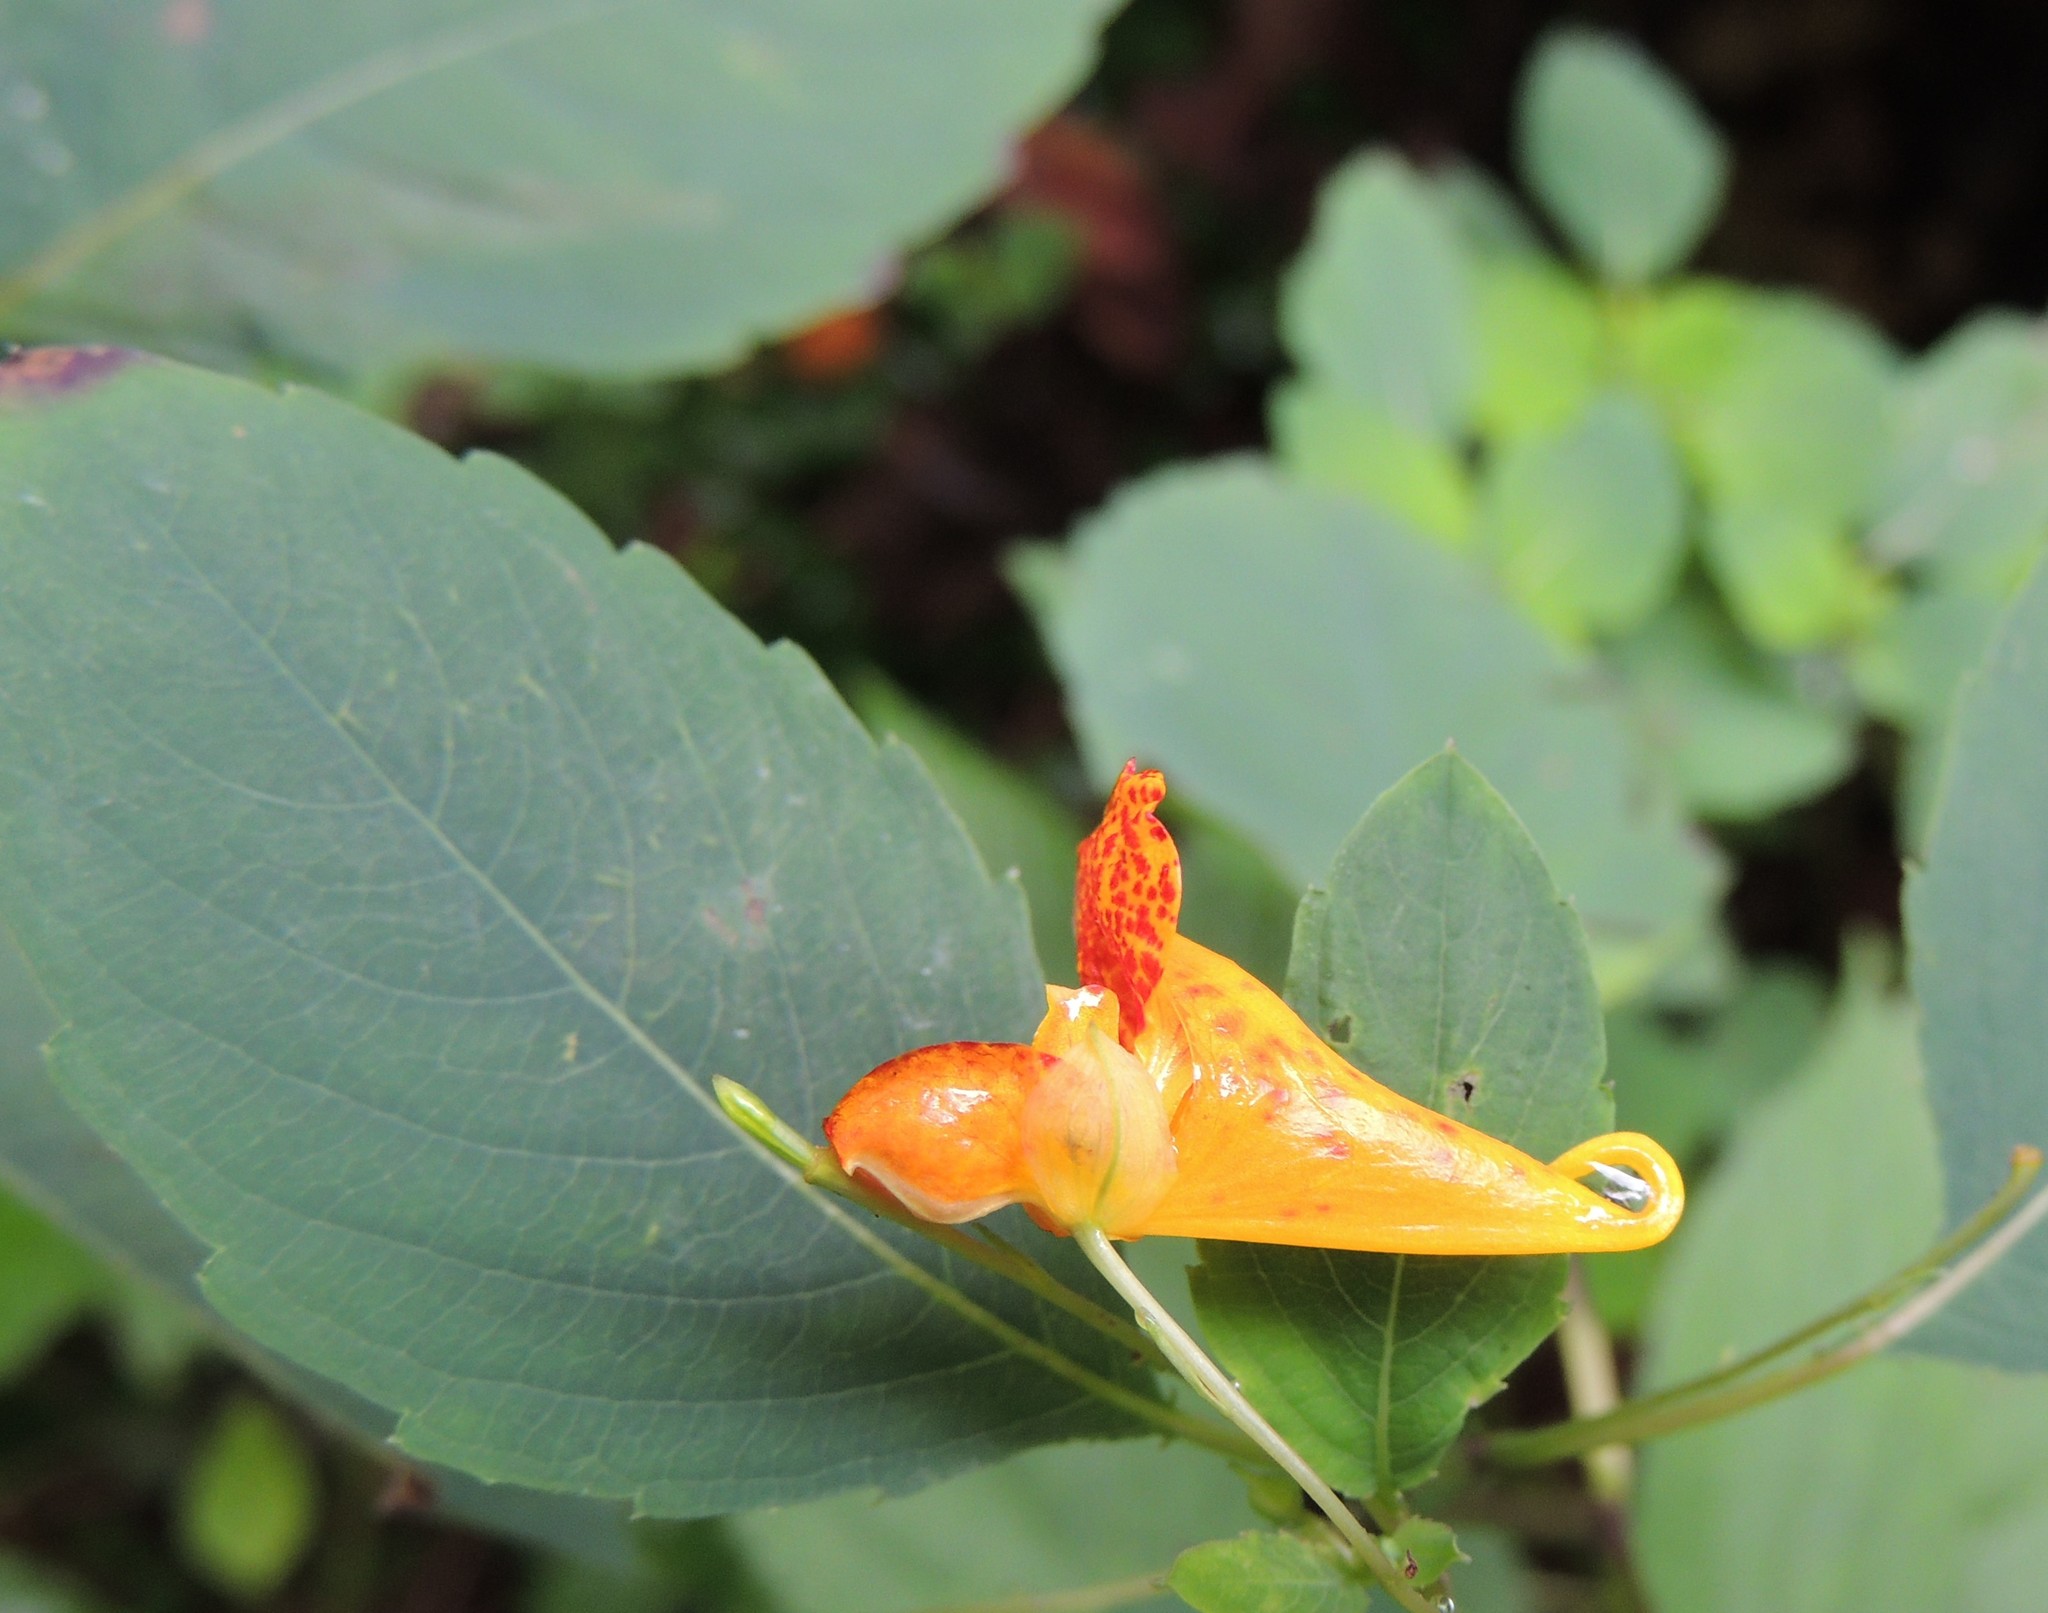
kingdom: Plantae
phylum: Tracheophyta
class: Magnoliopsida
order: Ericales
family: Balsaminaceae
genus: Impatiens
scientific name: Impatiens capensis
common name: Orange balsam
